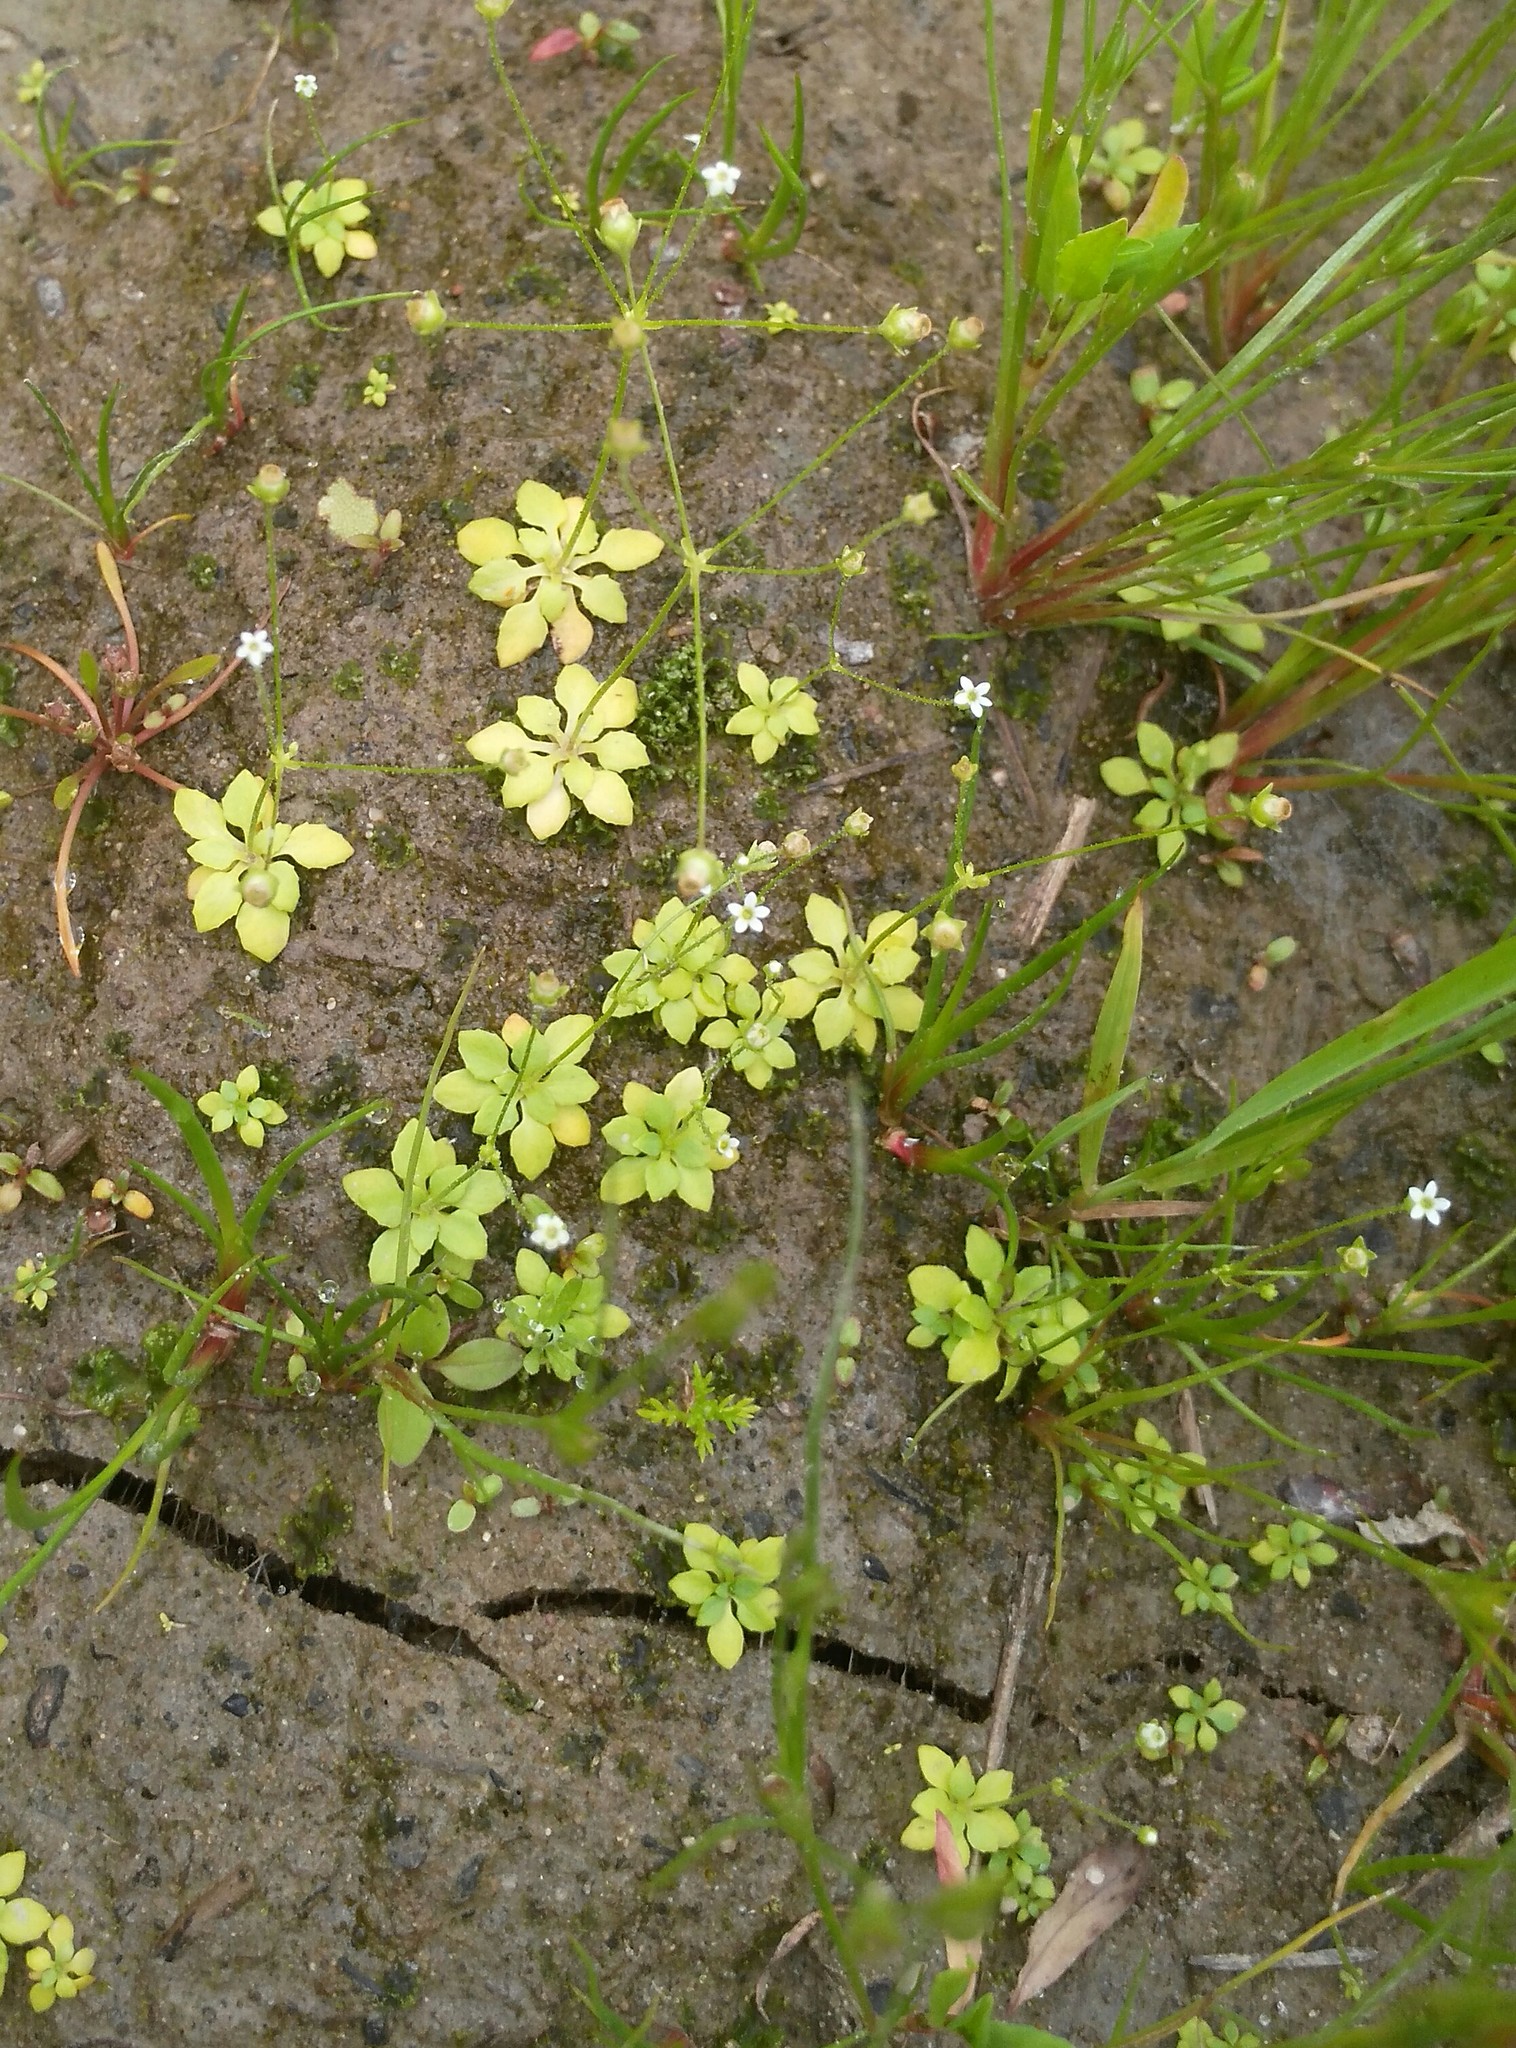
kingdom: Plantae
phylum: Tracheophyta
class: Magnoliopsida
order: Ericales
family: Primulaceae
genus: Androsace
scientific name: Androsace filiformis
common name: Filiform rock jasmine
